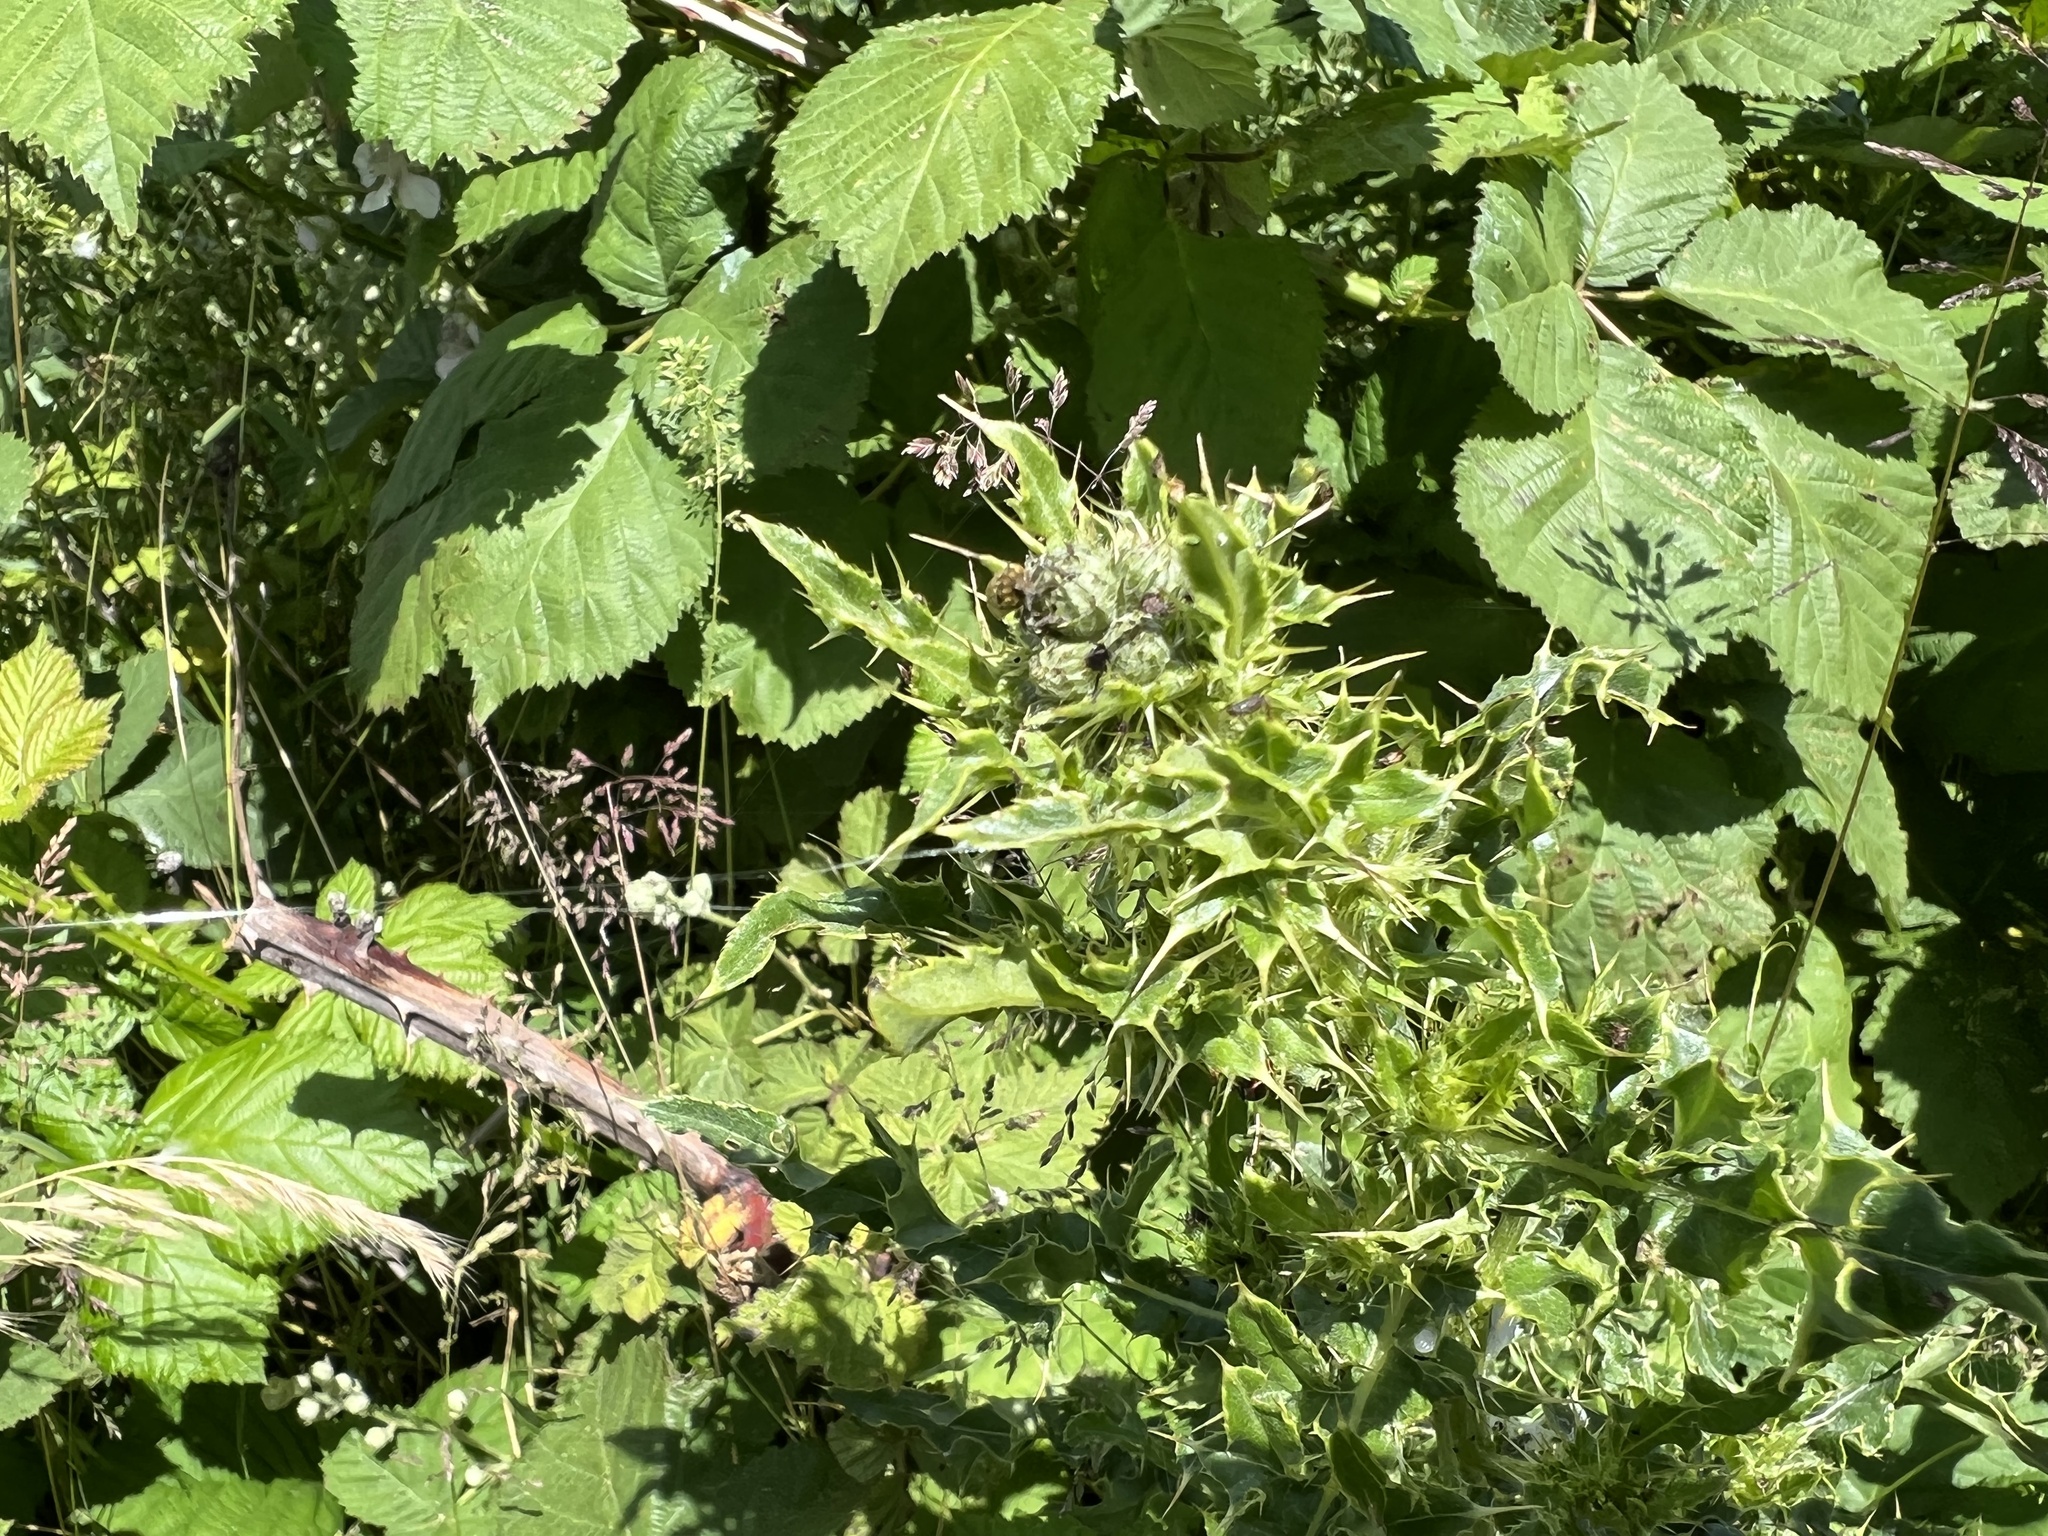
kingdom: Animalia
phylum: Arthropoda
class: Insecta
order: Coleoptera
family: Curculionidae
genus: Rhinocyllus
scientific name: Rhinocyllus conicus
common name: Weevil
